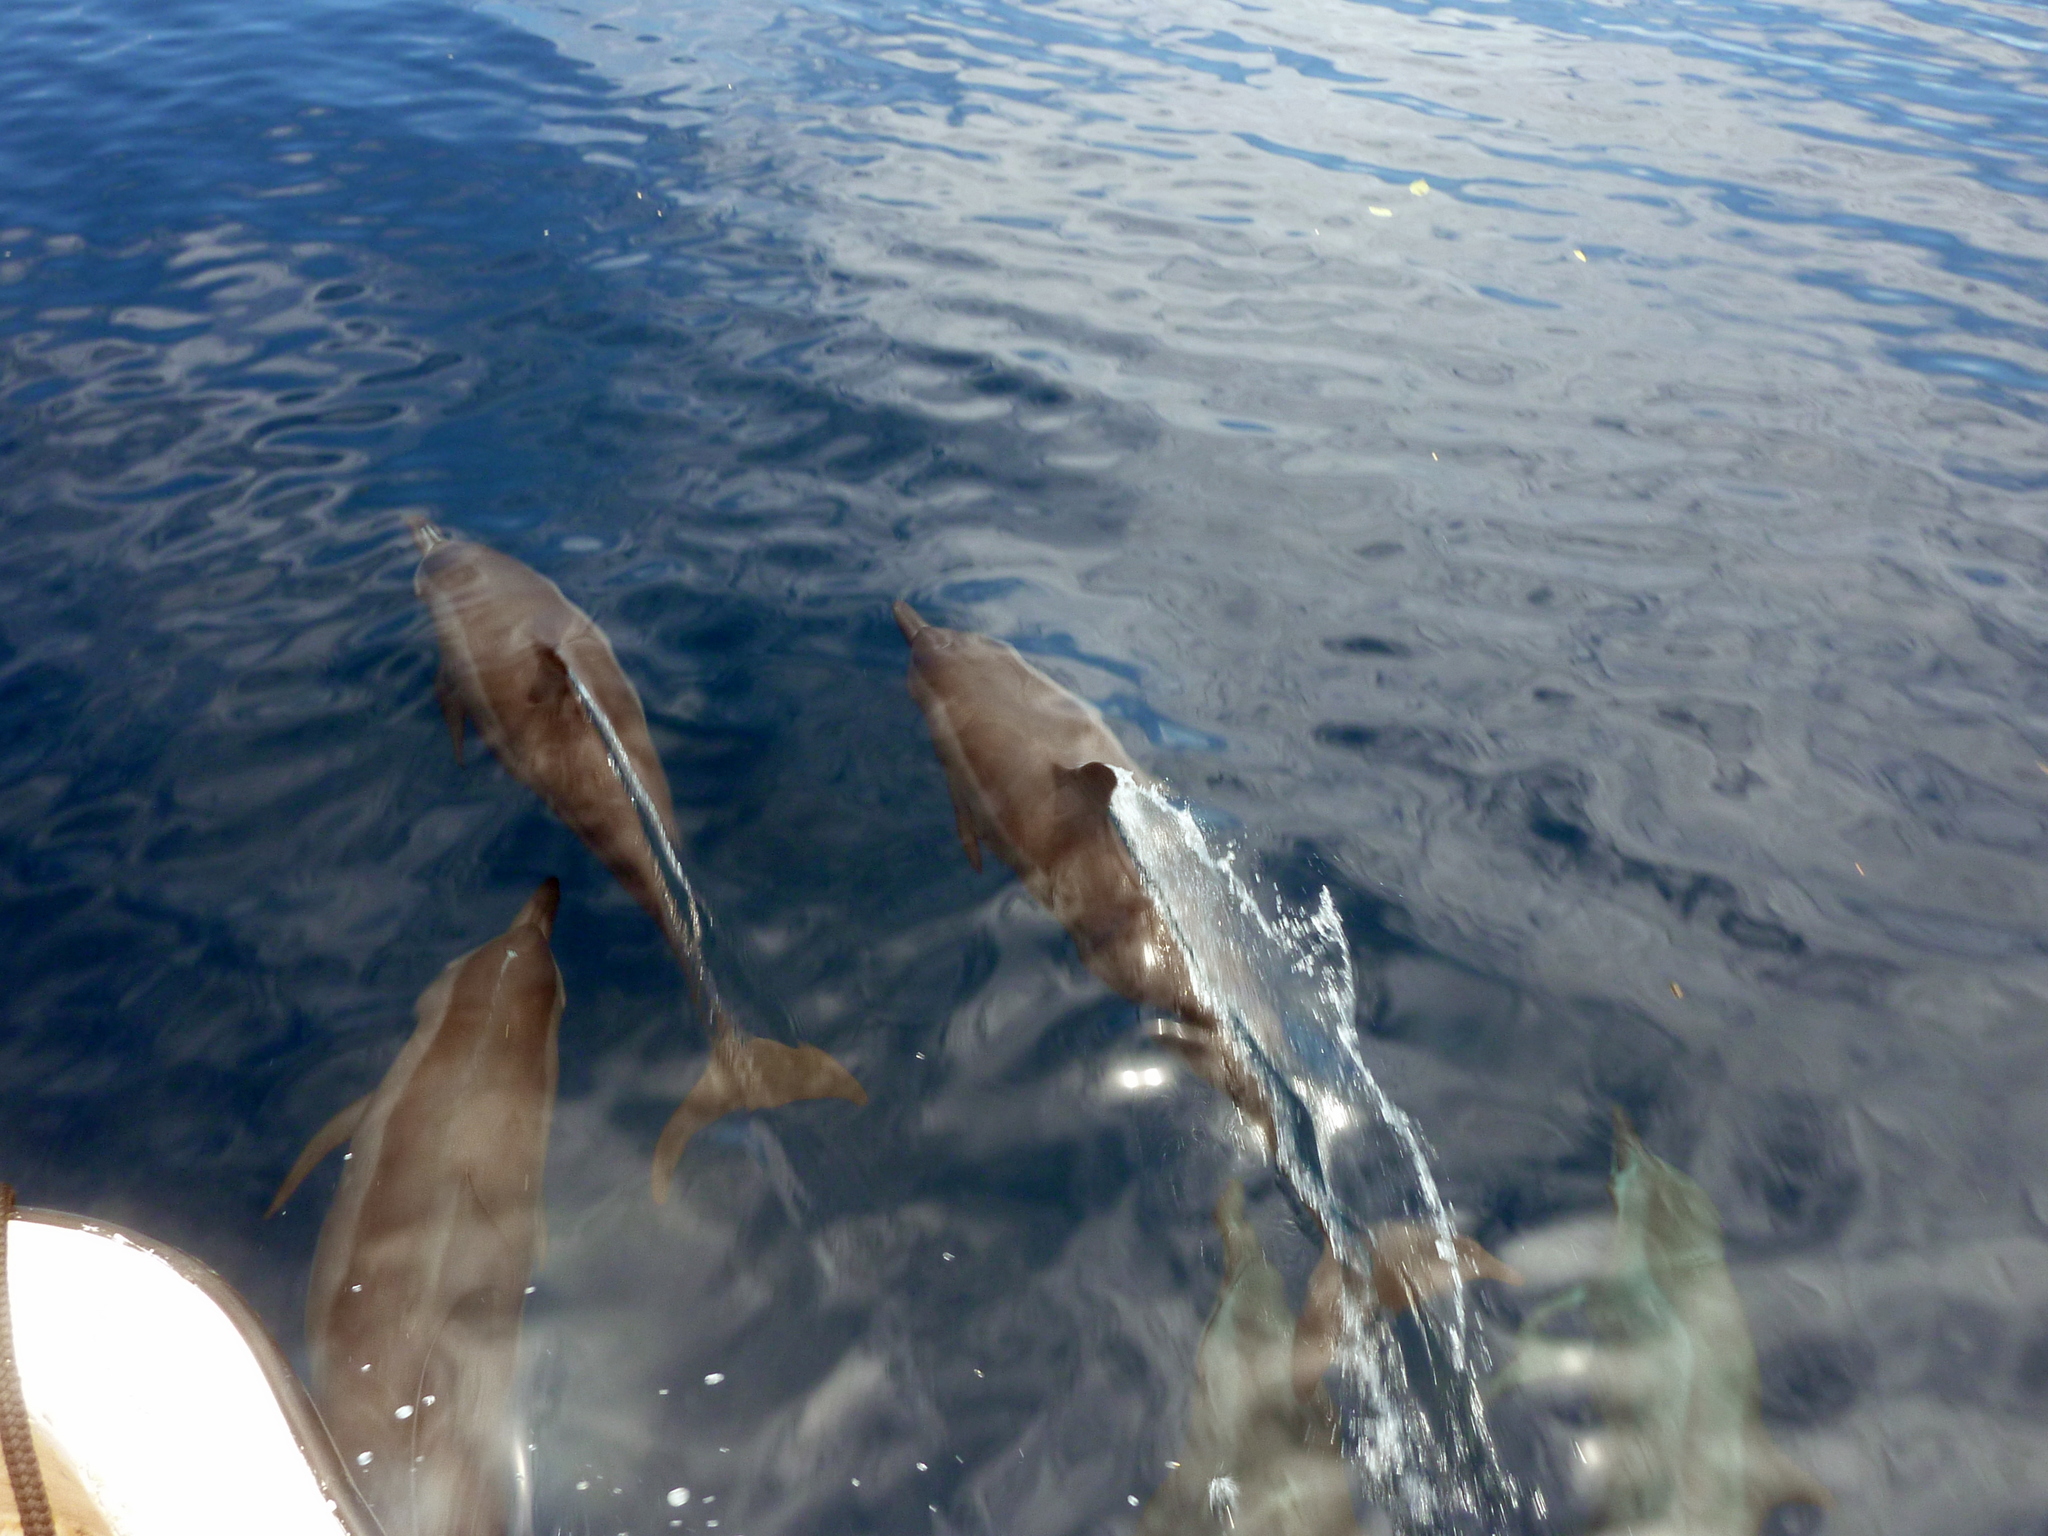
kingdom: Animalia
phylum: Chordata
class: Mammalia
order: Cetacea
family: Delphinidae
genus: Stenella
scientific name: Stenella longirostris
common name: Spinner dolphin
